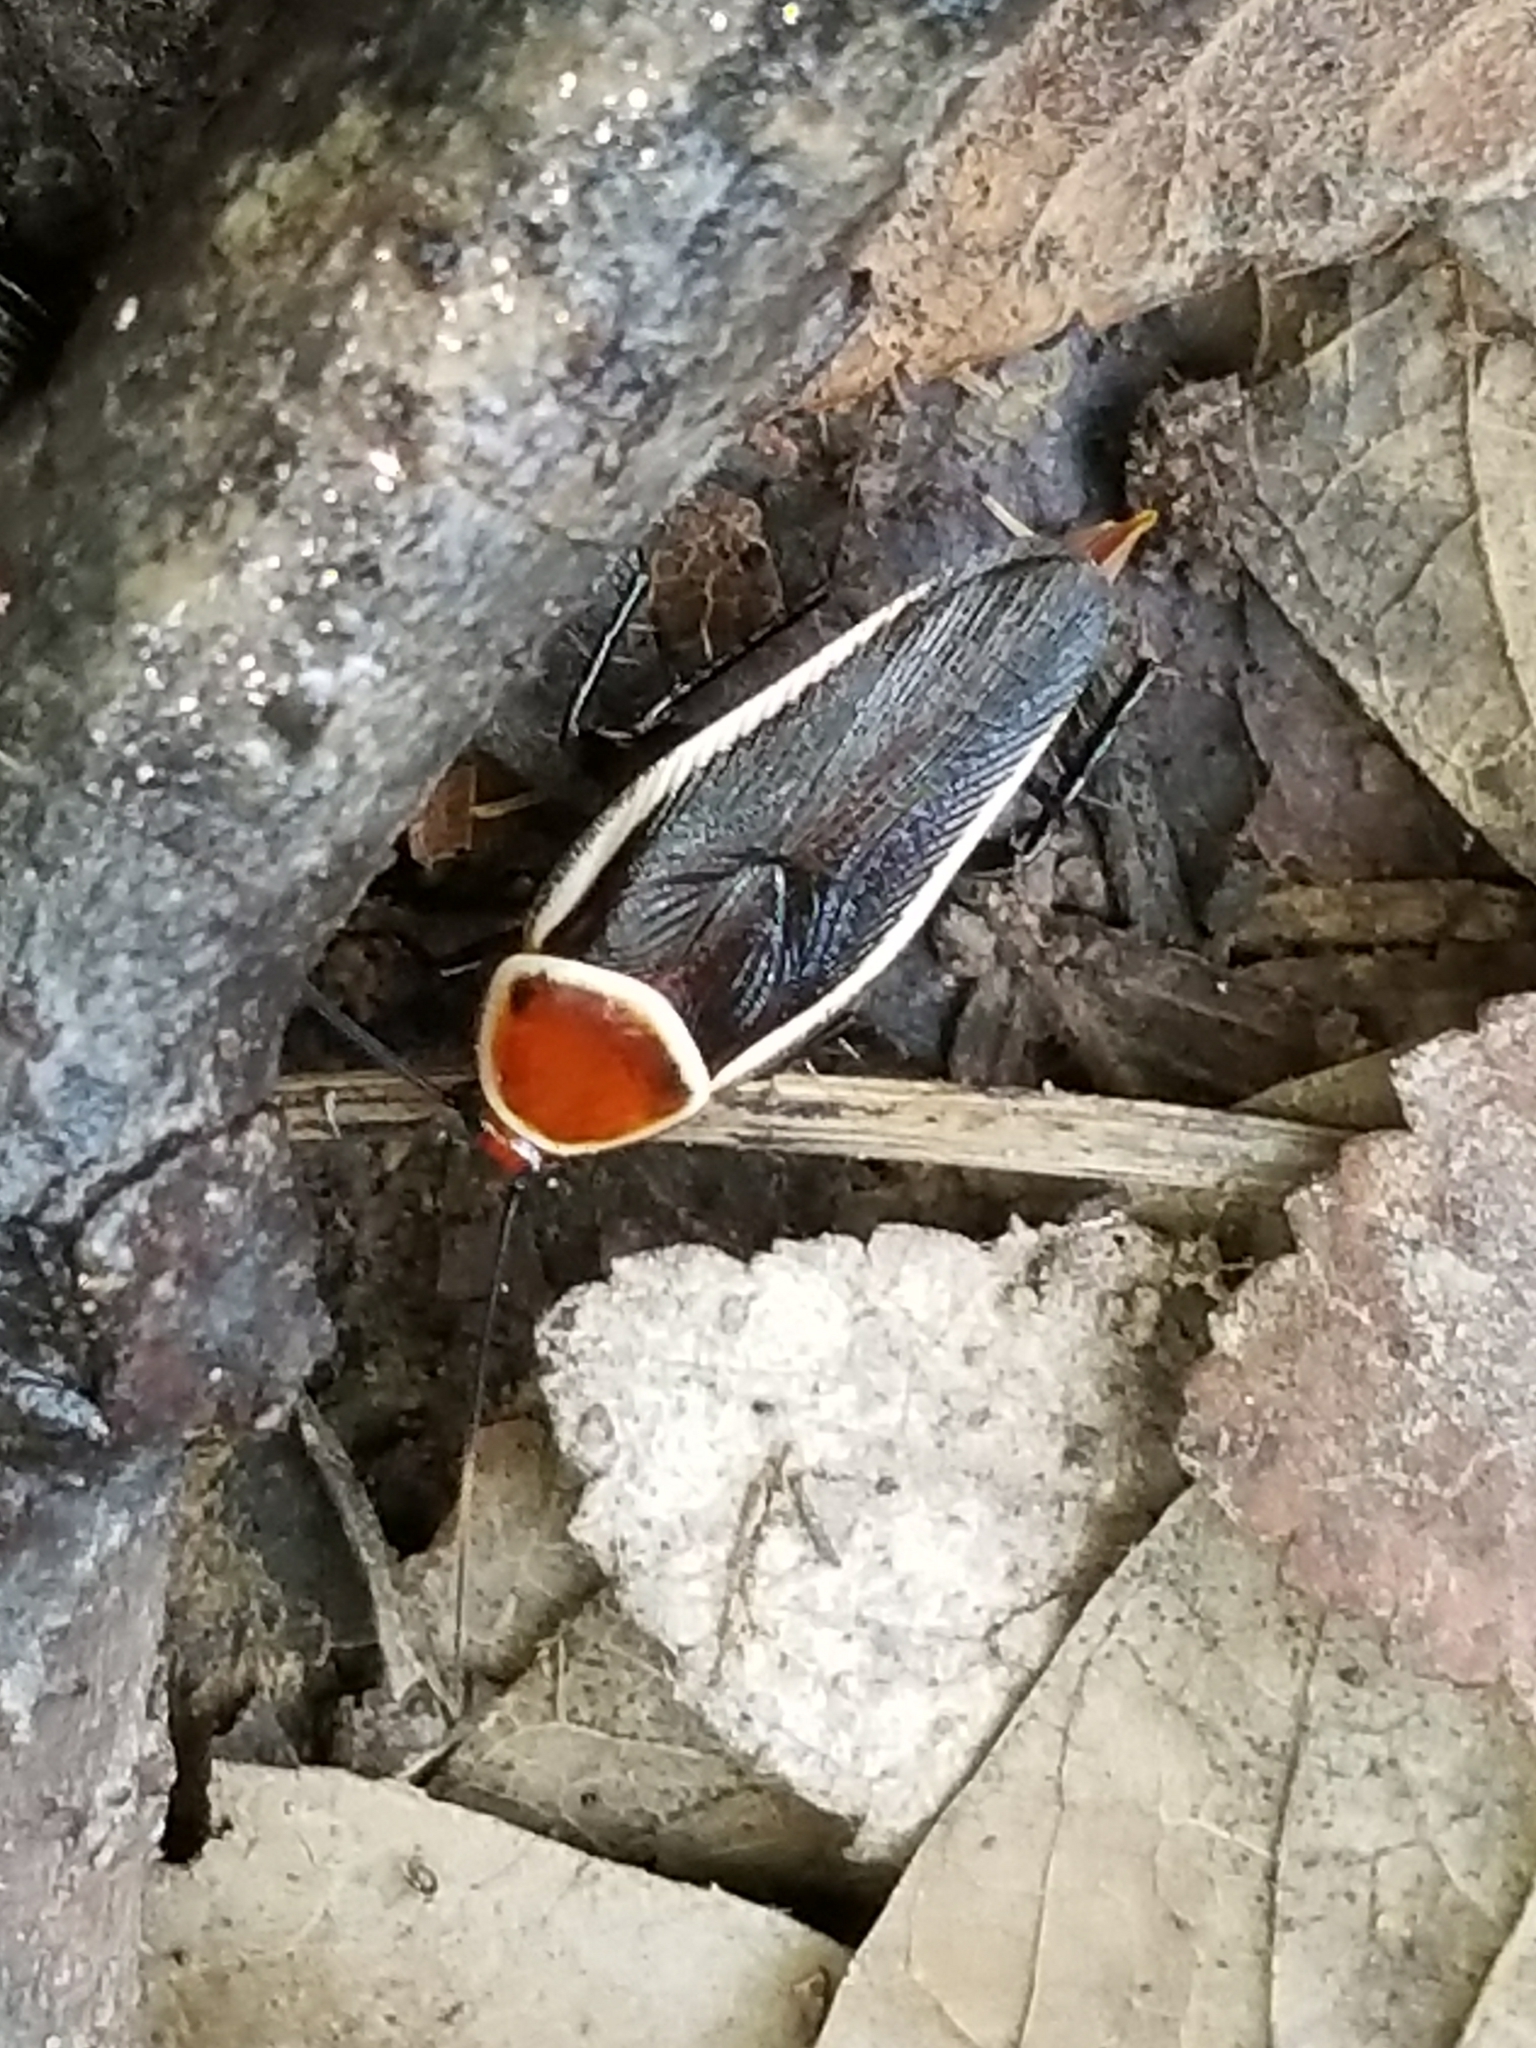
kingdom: Animalia
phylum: Arthropoda
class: Insecta
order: Blattodea
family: Ectobiidae
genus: Pseudomops
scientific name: Pseudomops septentrionalis
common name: Pale-bordered field cockroach
